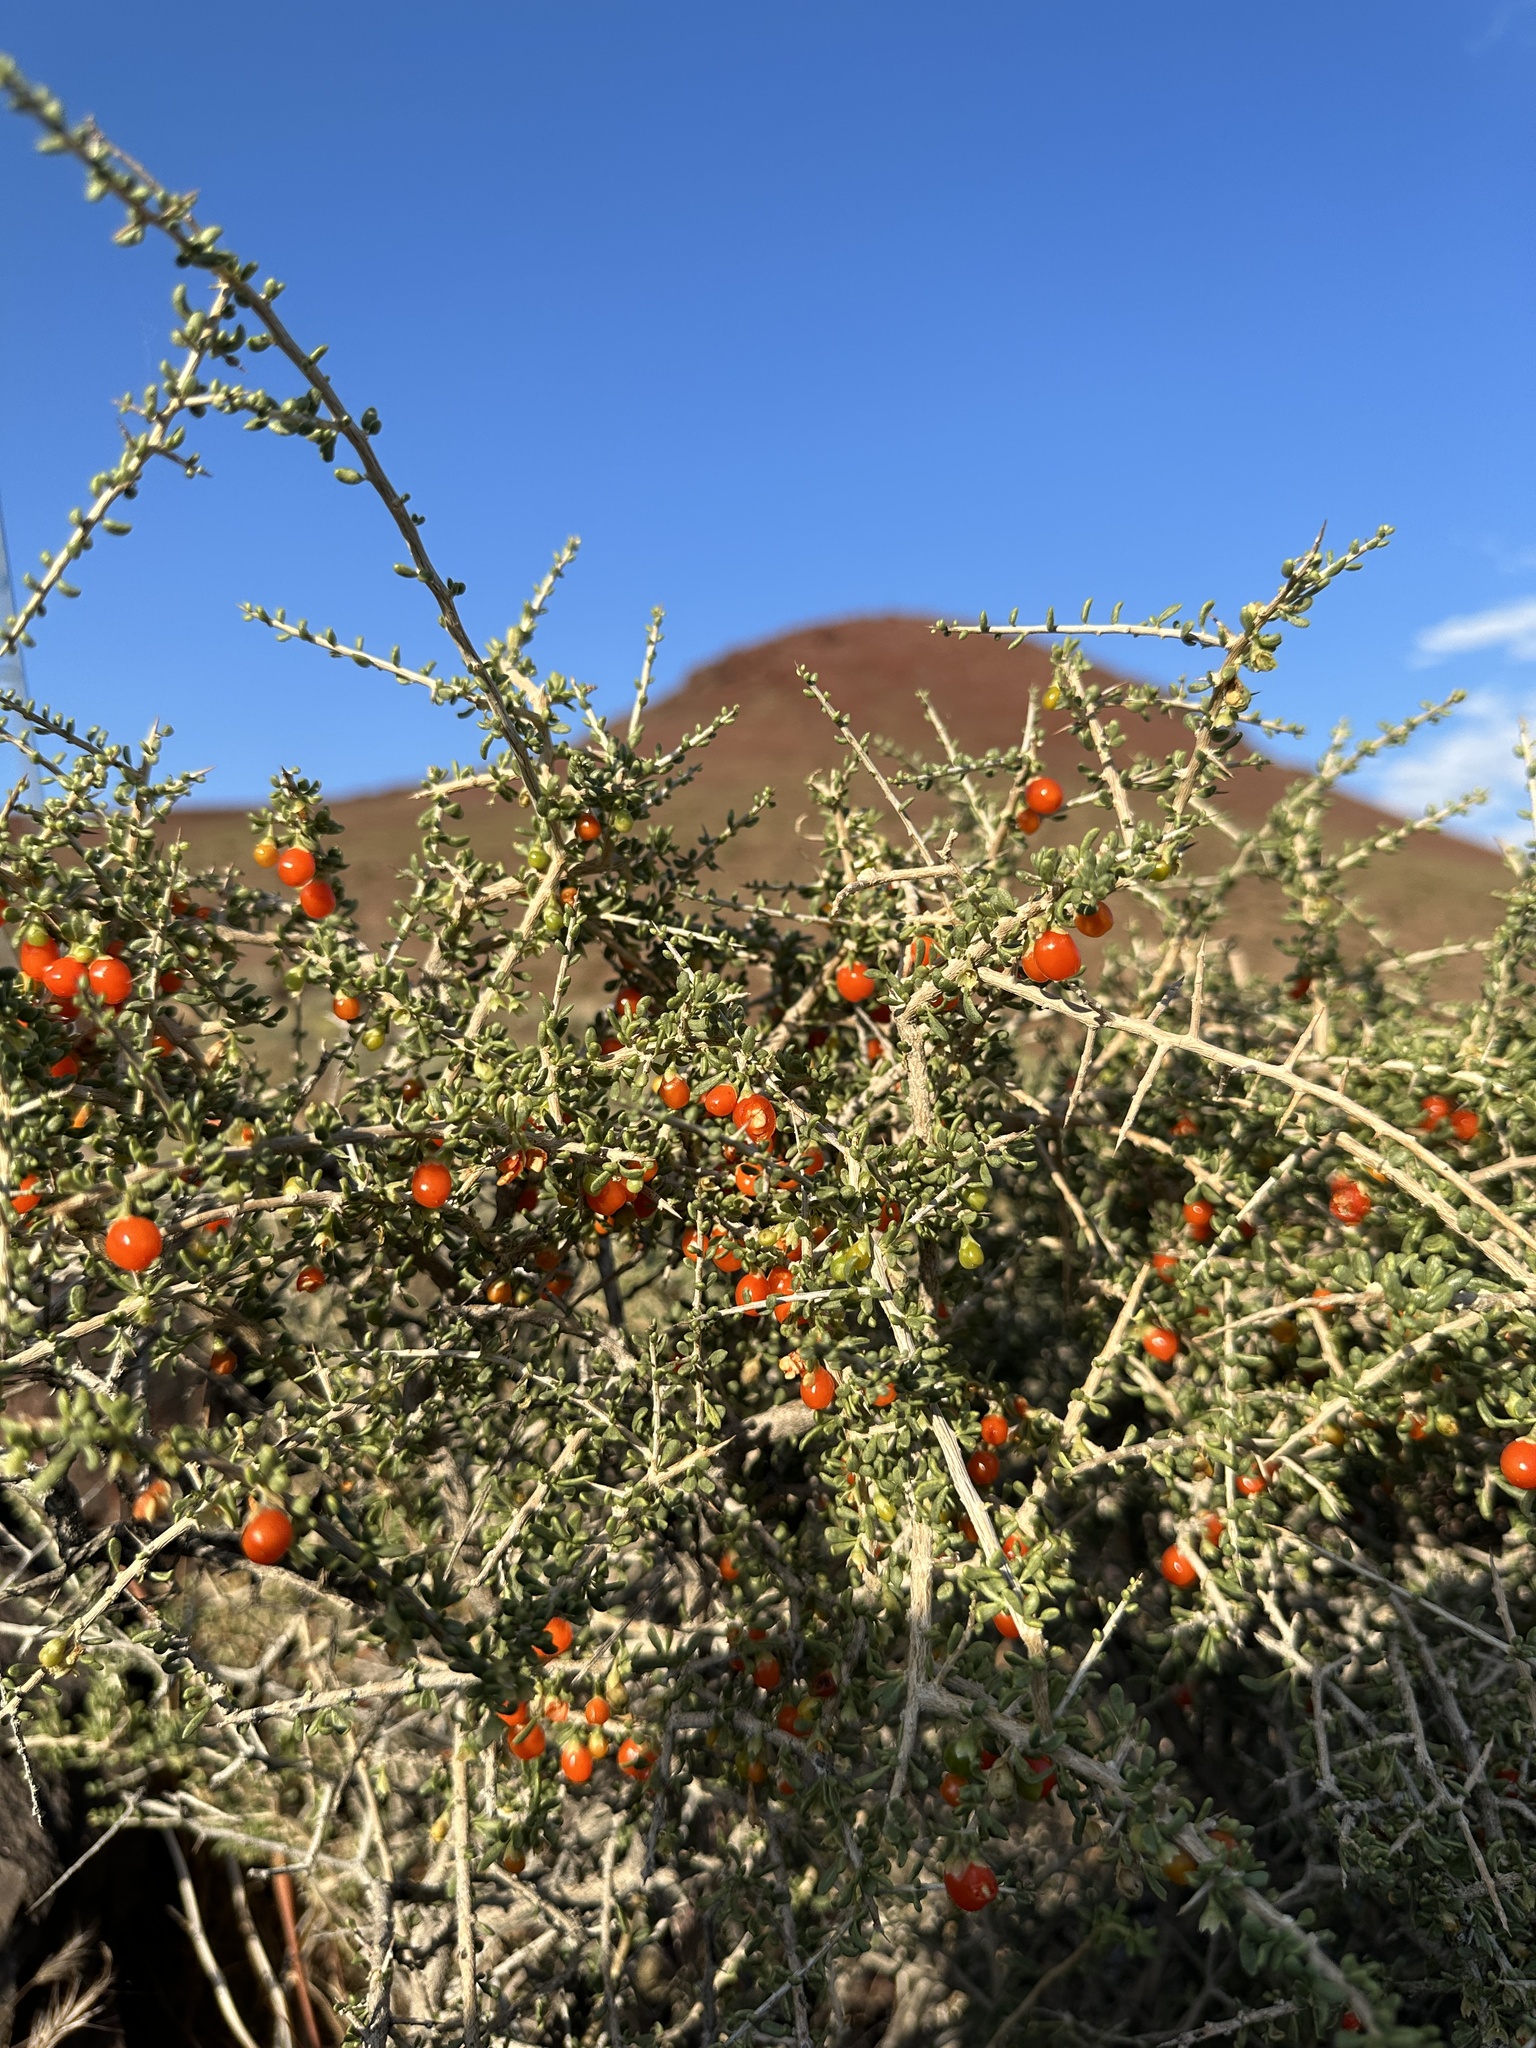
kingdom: Plantae
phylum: Tracheophyta
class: Magnoliopsida
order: Solanales
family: Solanaceae
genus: Lycium
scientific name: Lycium andersonii
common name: Water-jacket
